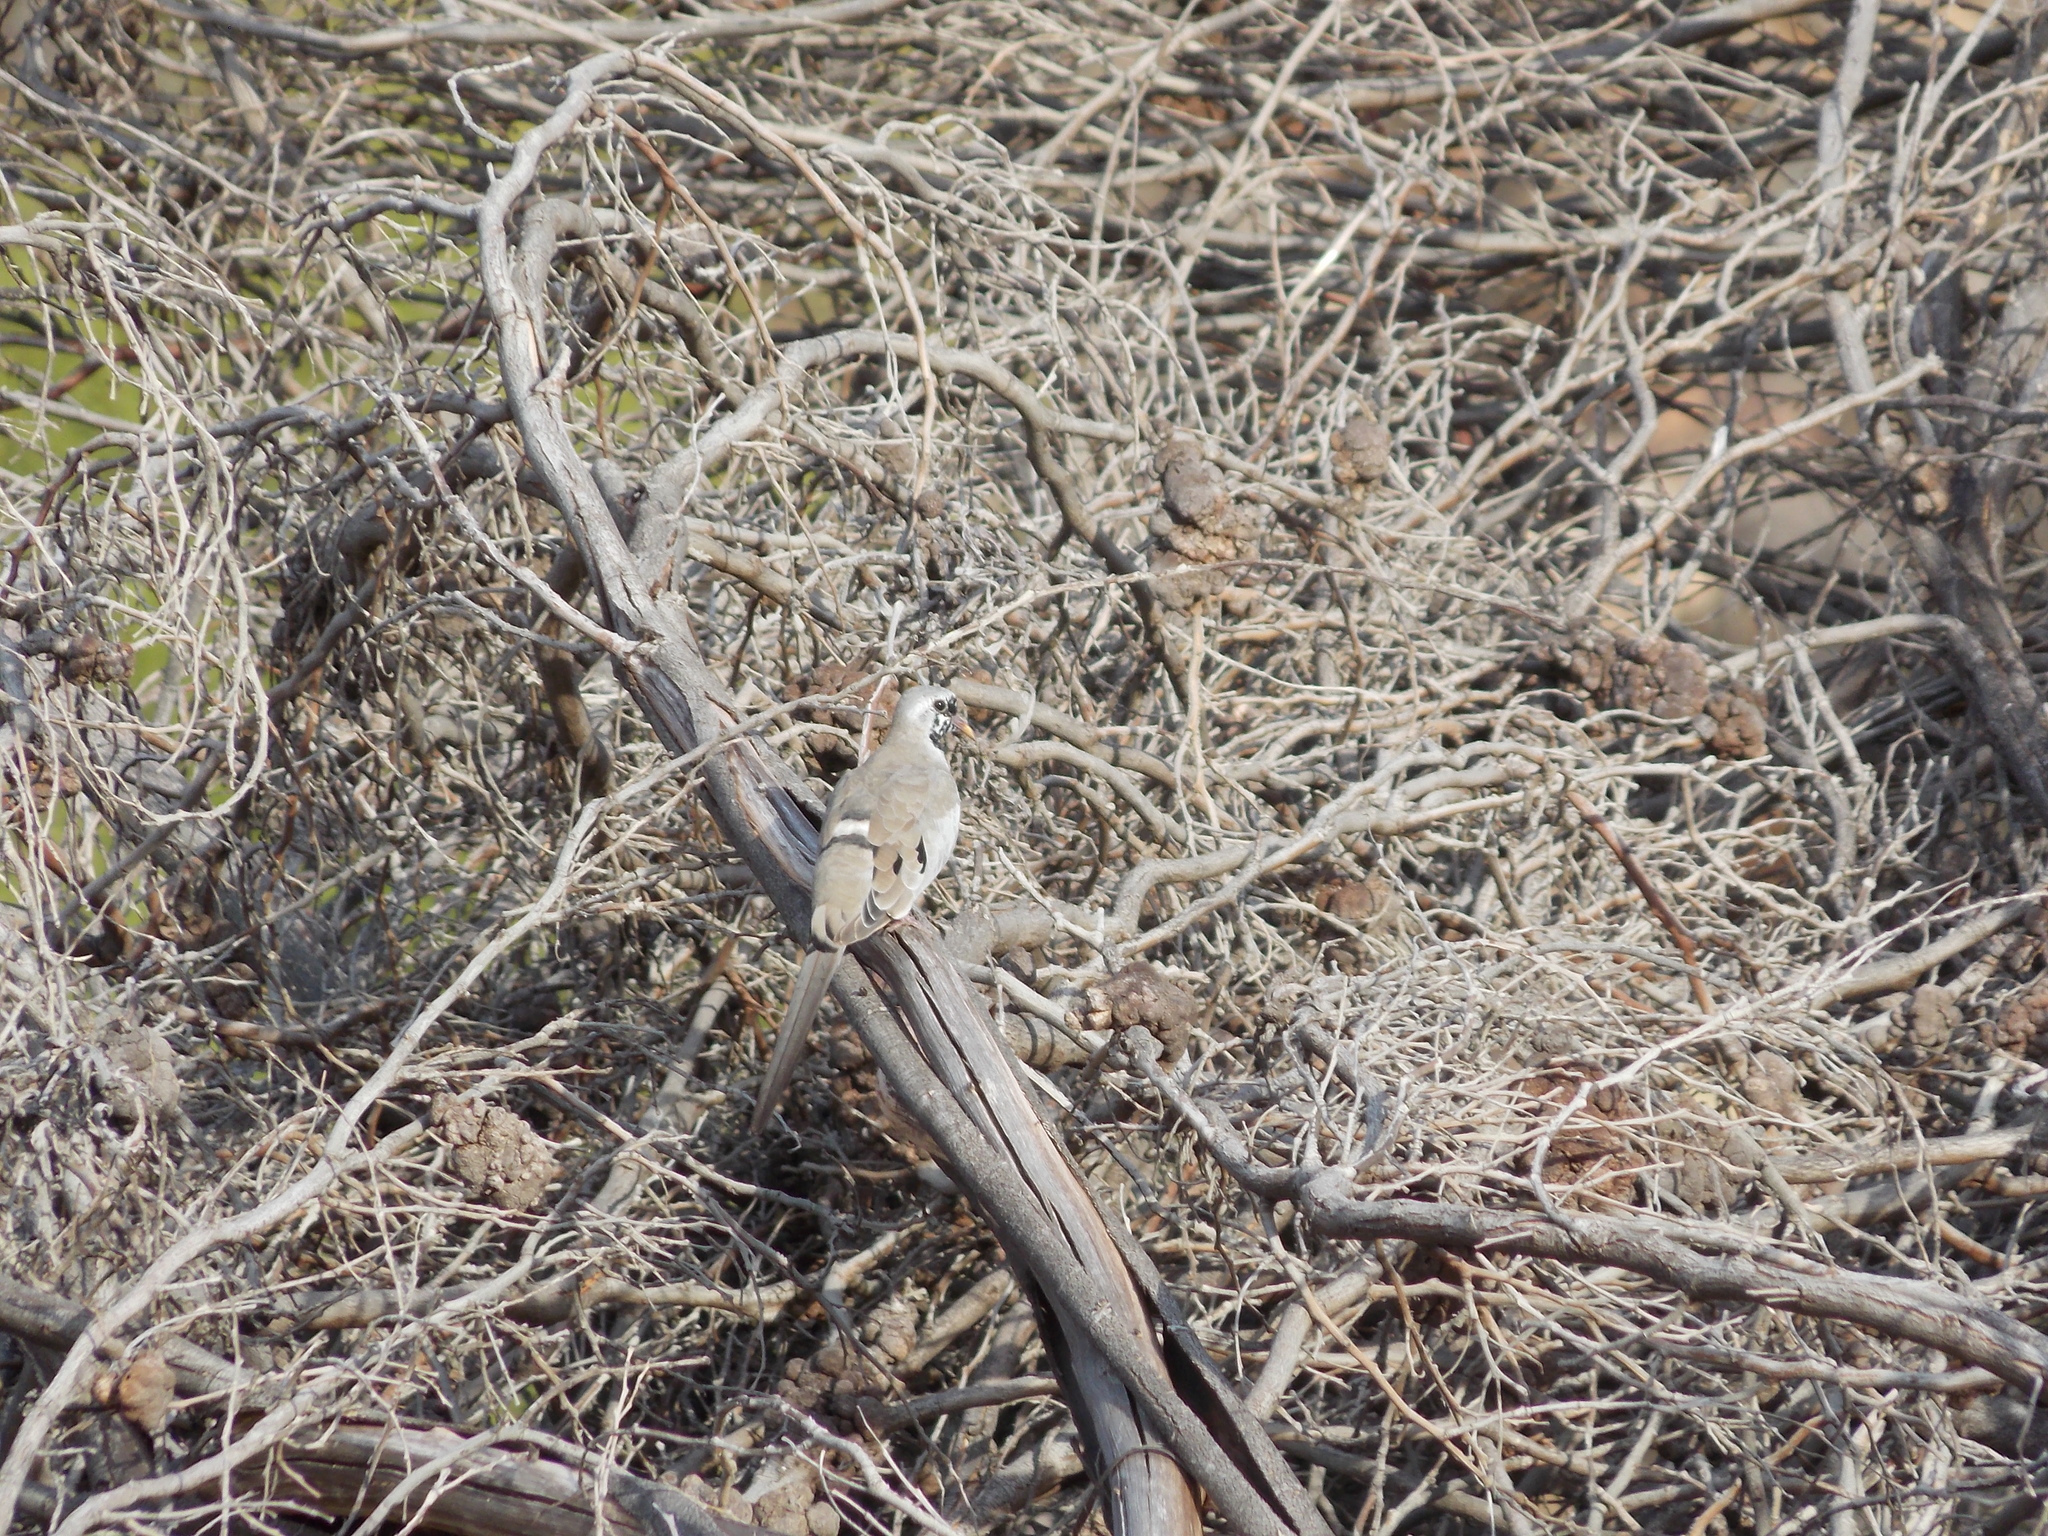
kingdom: Animalia
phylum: Chordata
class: Aves
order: Columbiformes
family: Columbidae
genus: Oena
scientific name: Oena capensis
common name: Namaqua dove
